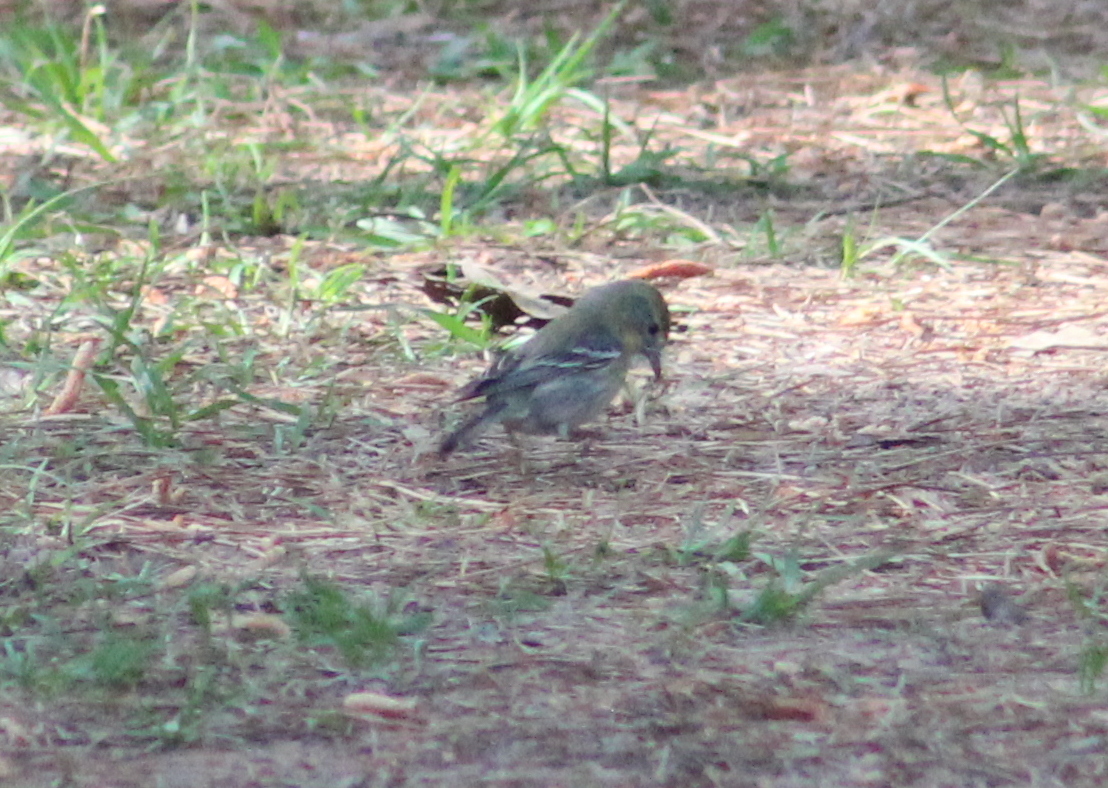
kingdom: Animalia
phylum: Chordata
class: Aves
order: Passeriformes
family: Parulidae
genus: Setophaga
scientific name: Setophaga pinus
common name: Pine warbler
